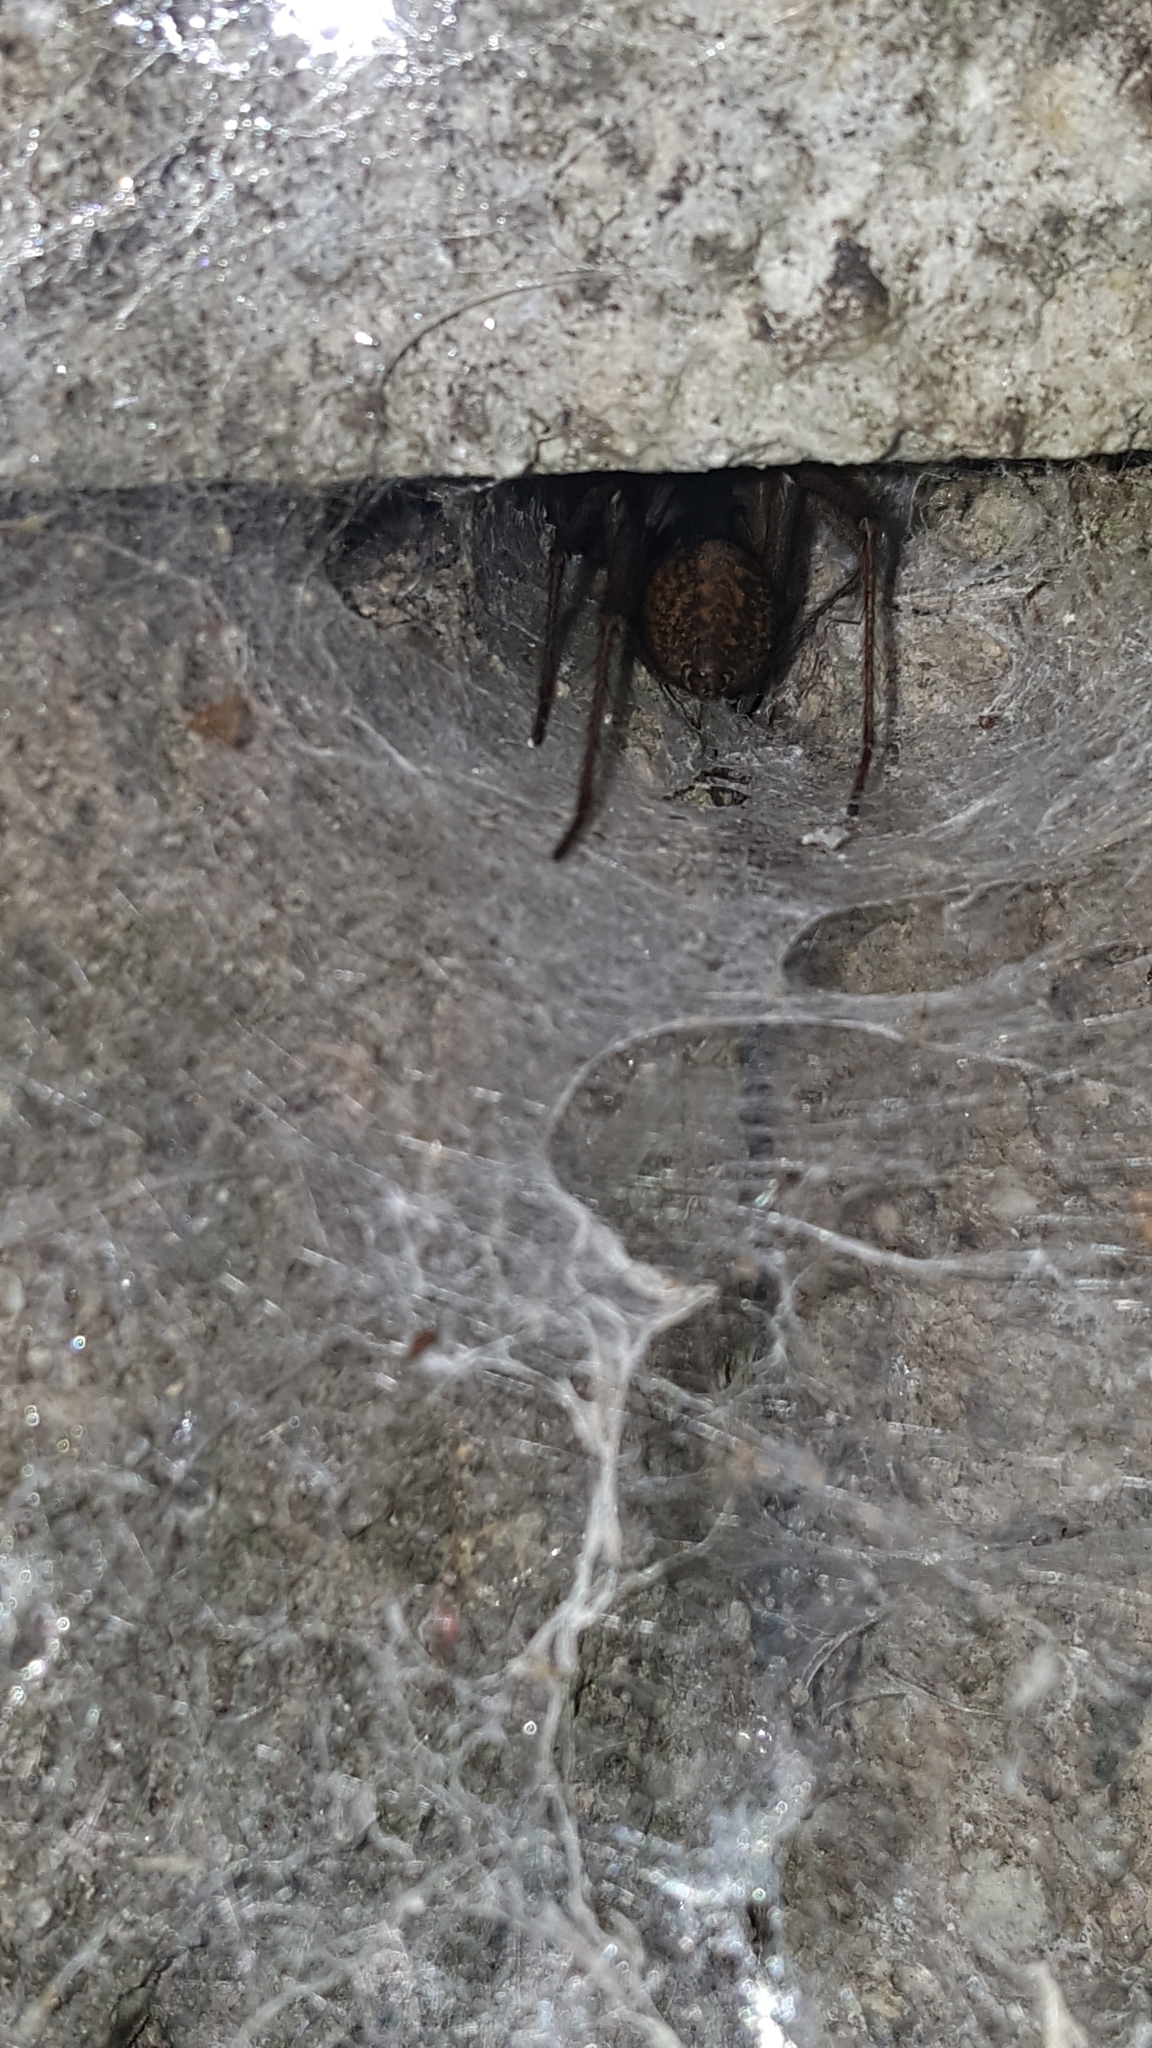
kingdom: Animalia
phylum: Arthropoda
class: Arachnida
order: Araneae
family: Agelenidae
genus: Eratigena
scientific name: Eratigena duellica
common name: Giant house spider
